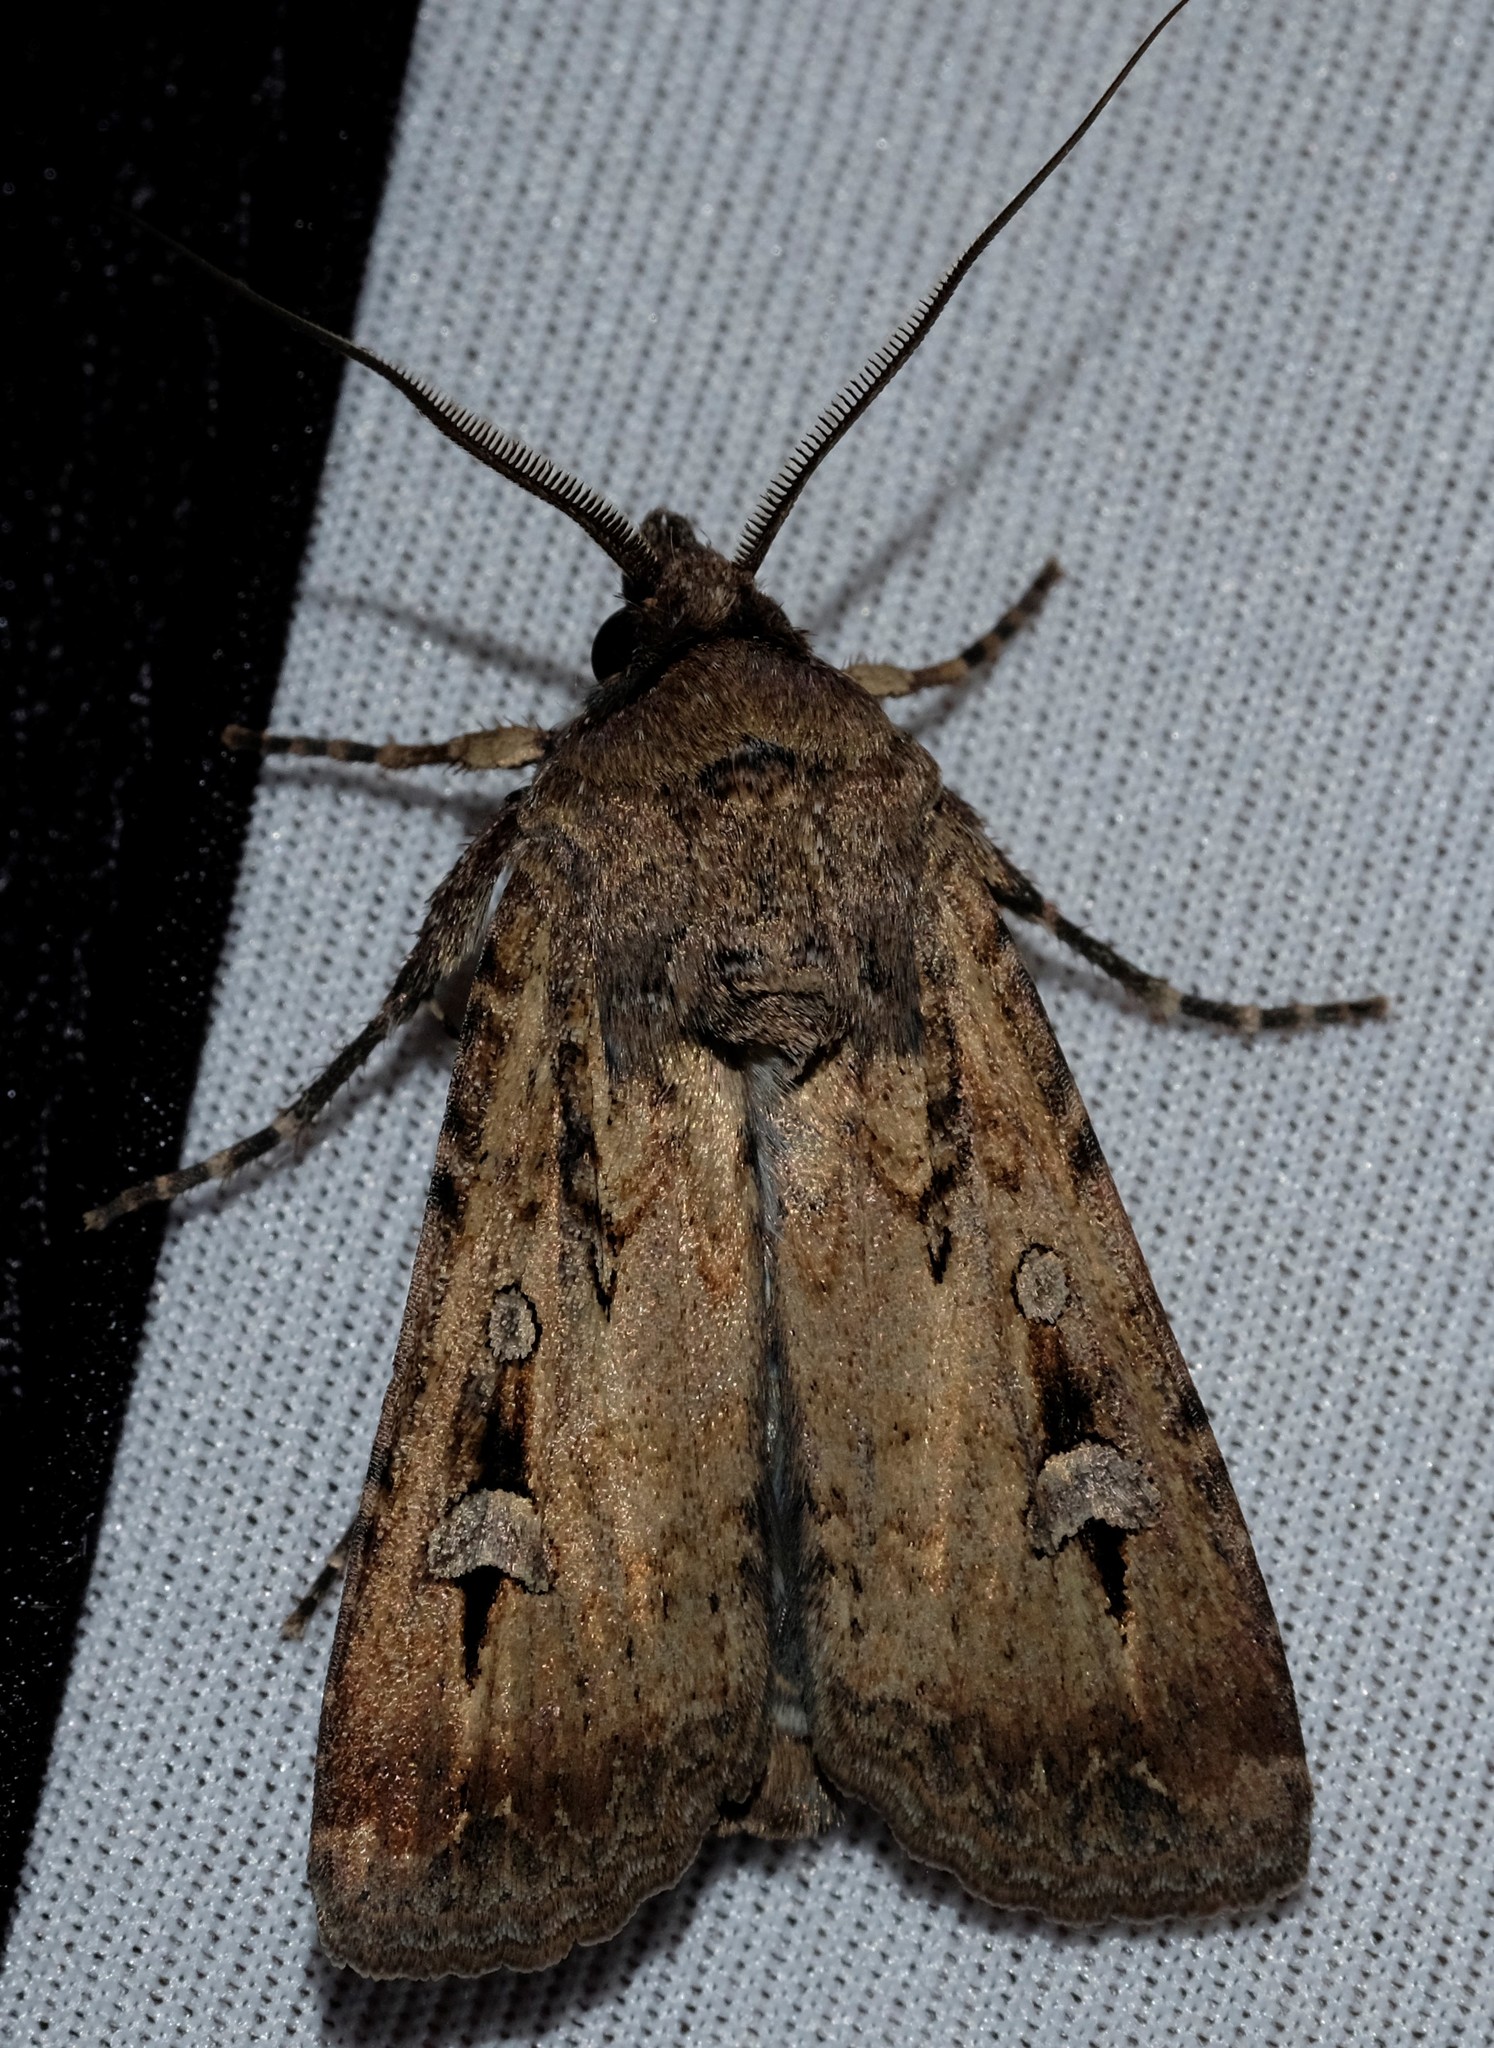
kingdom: Animalia
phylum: Arthropoda
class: Insecta
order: Lepidoptera
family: Noctuidae
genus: Agrotis
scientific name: Agrotis infusa
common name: Bogong moth
